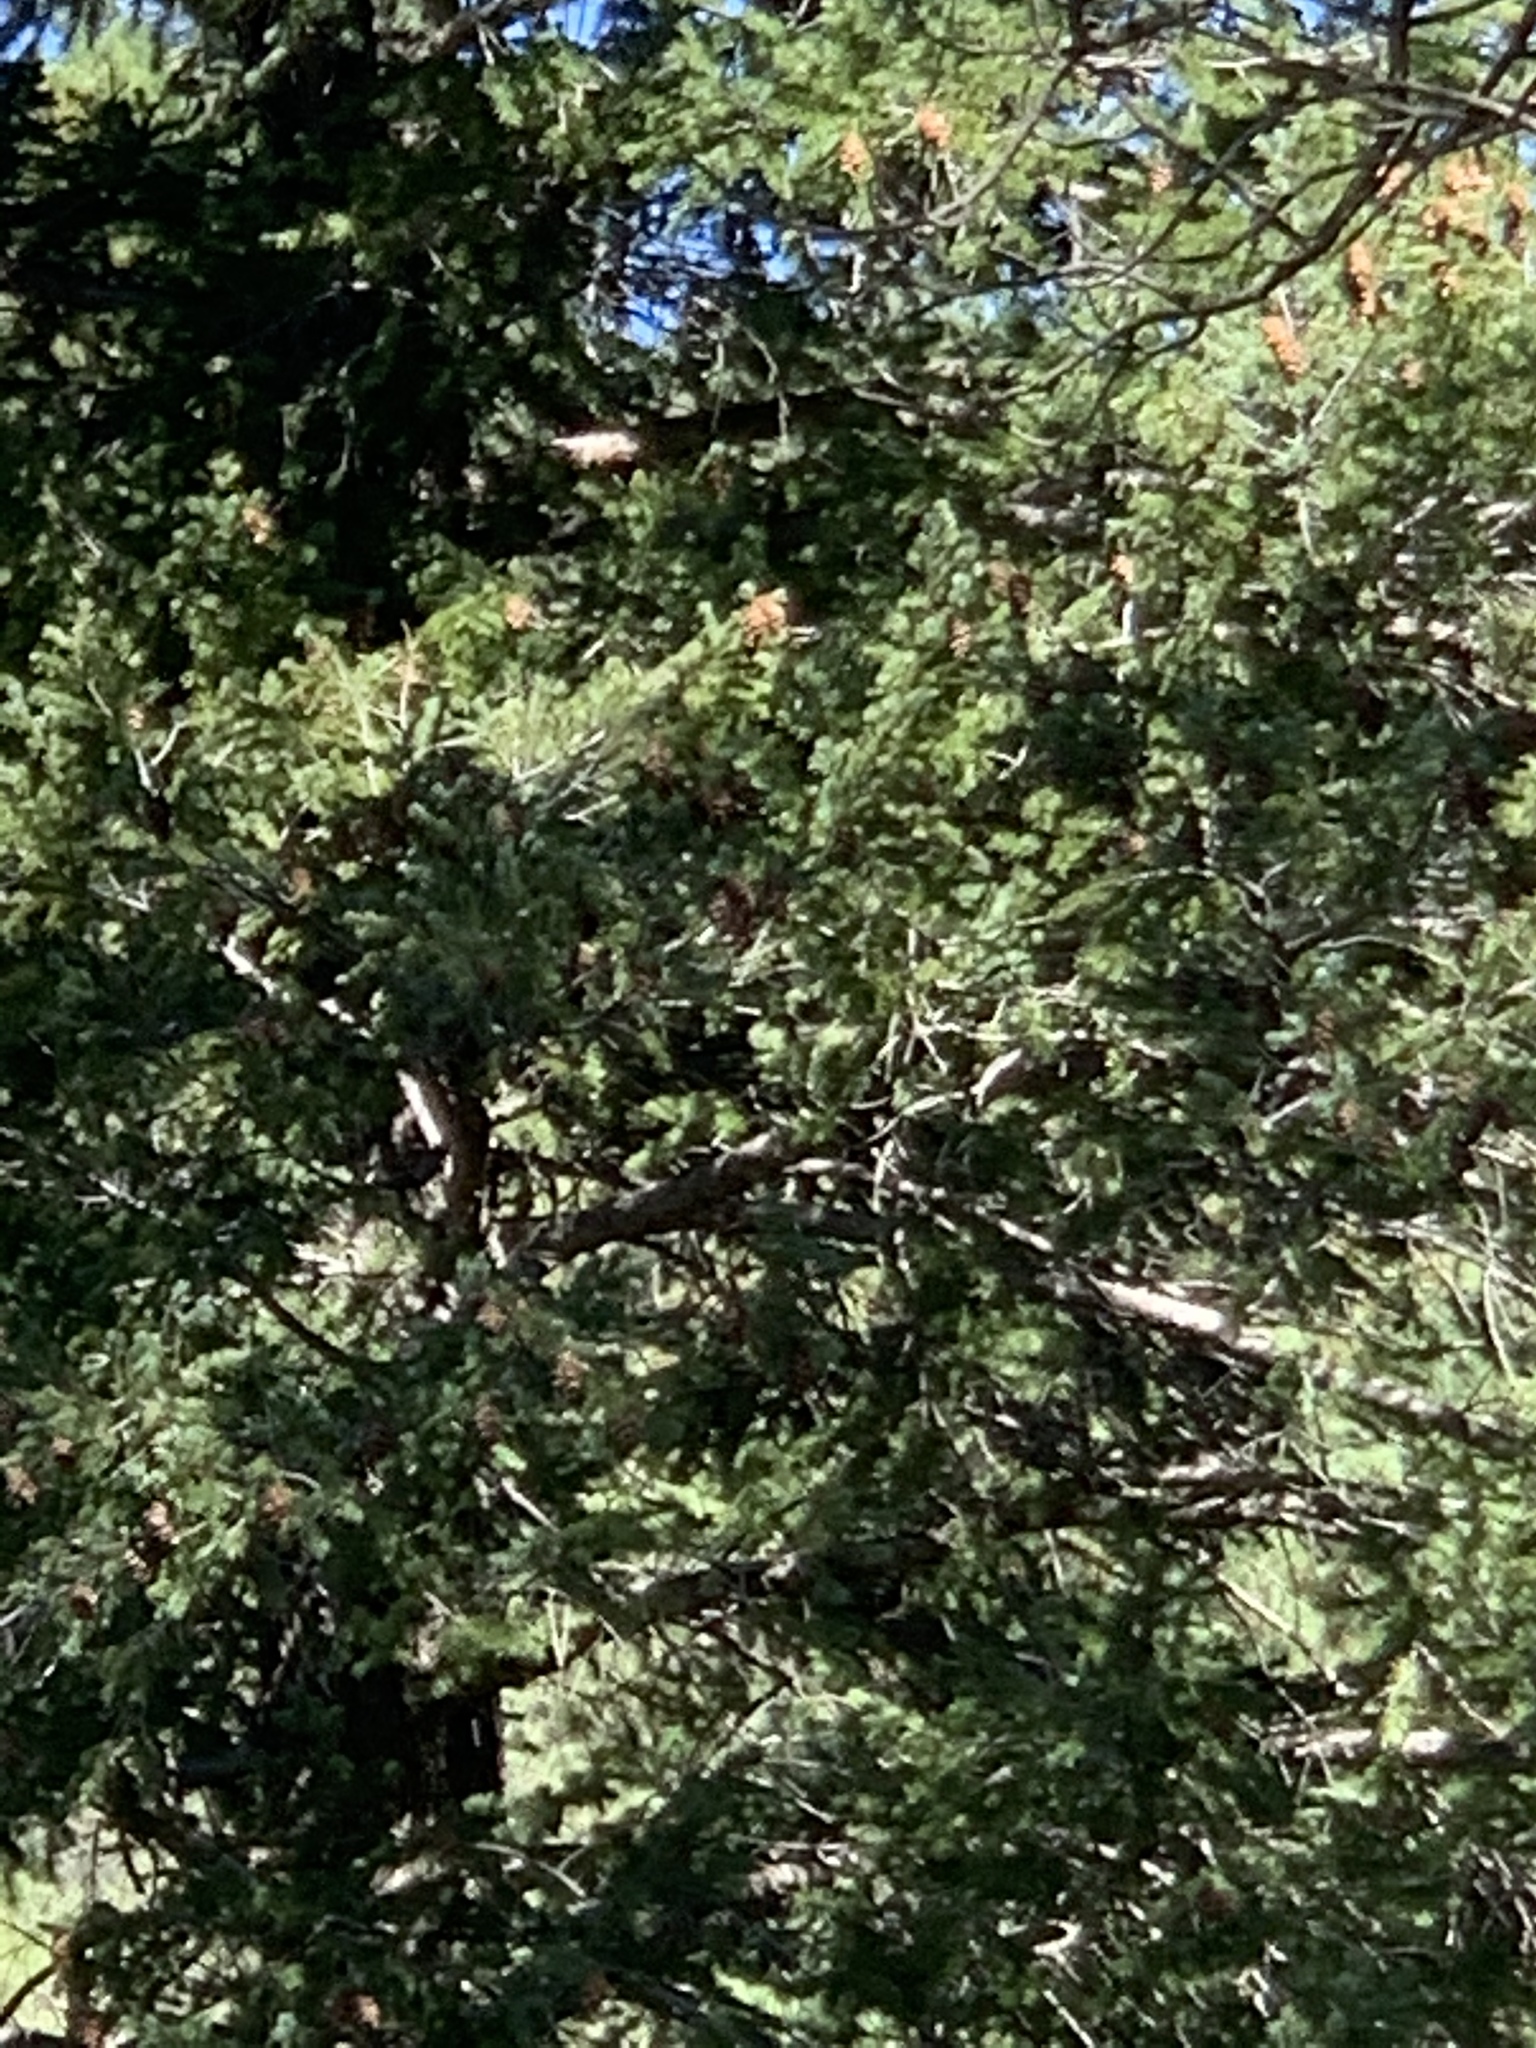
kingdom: Plantae
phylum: Tracheophyta
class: Pinopsida
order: Pinales
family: Pinaceae
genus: Pseudotsuga
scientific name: Pseudotsuga menziesii
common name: Douglas fir
